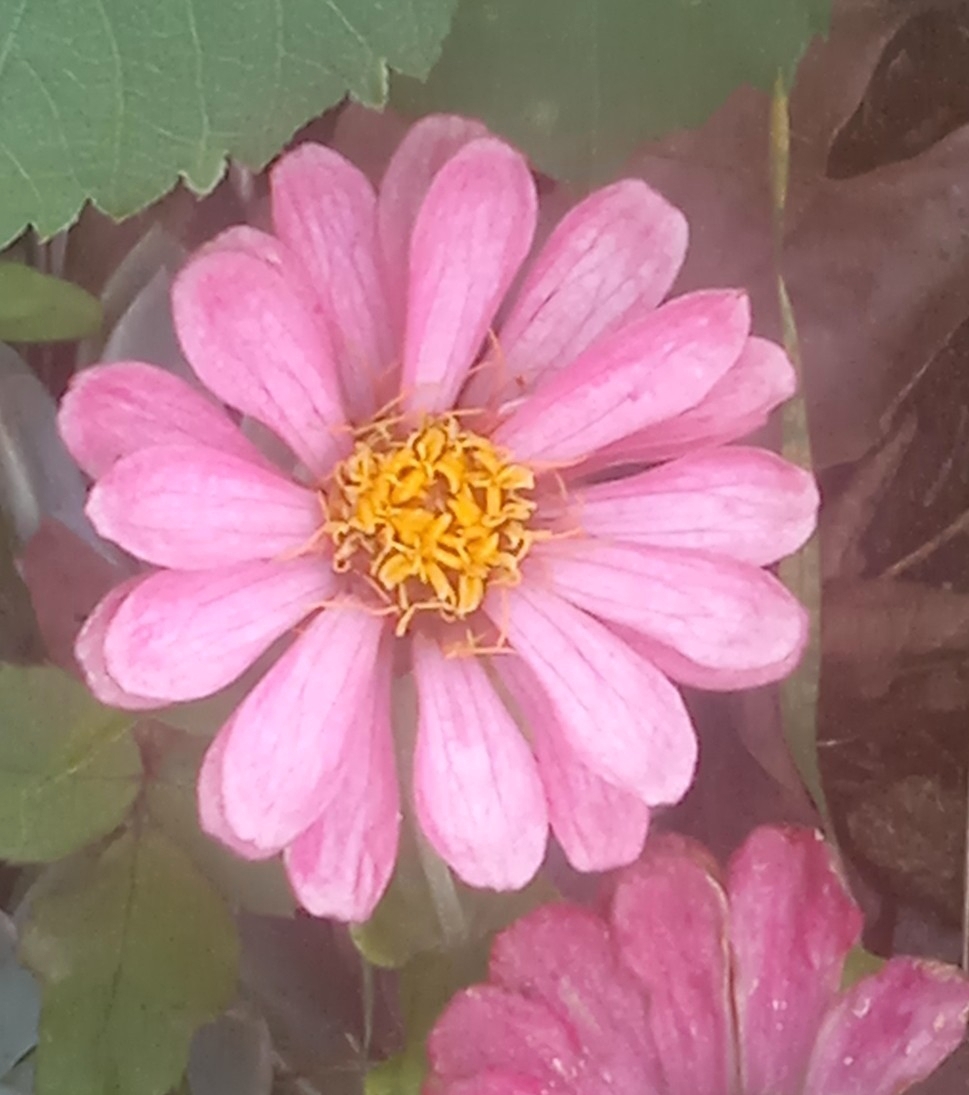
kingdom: Plantae
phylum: Tracheophyta
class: Magnoliopsida
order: Asterales
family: Asteraceae
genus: Zinnia
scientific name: Zinnia elegans
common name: Youth-and-age
